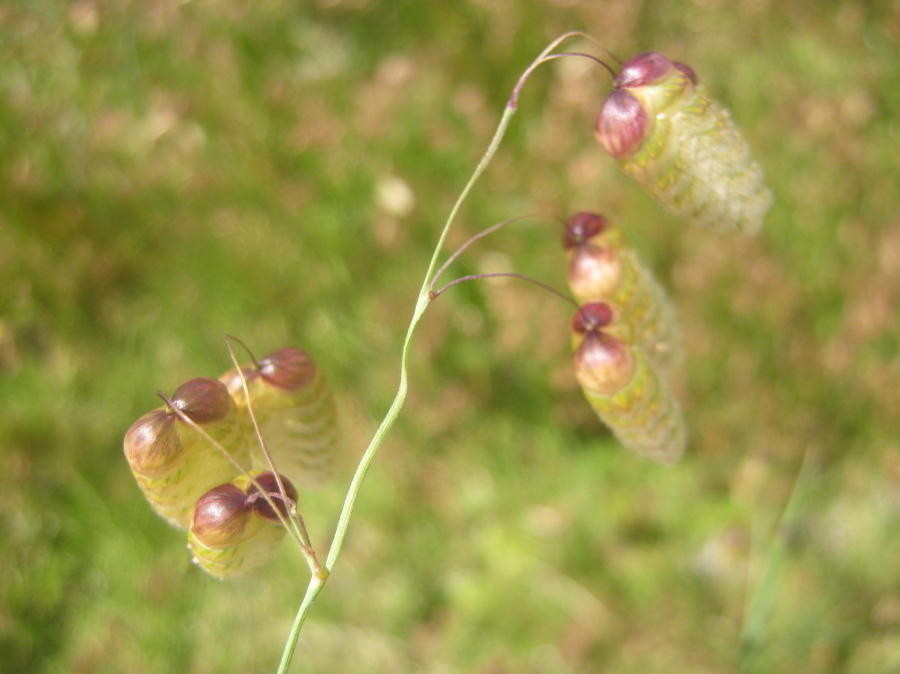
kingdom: Plantae
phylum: Tracheophyta
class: Liliopsida
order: Poales
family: Poaceae
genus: Briza
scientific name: Briza maxima
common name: Big quakinggrass
